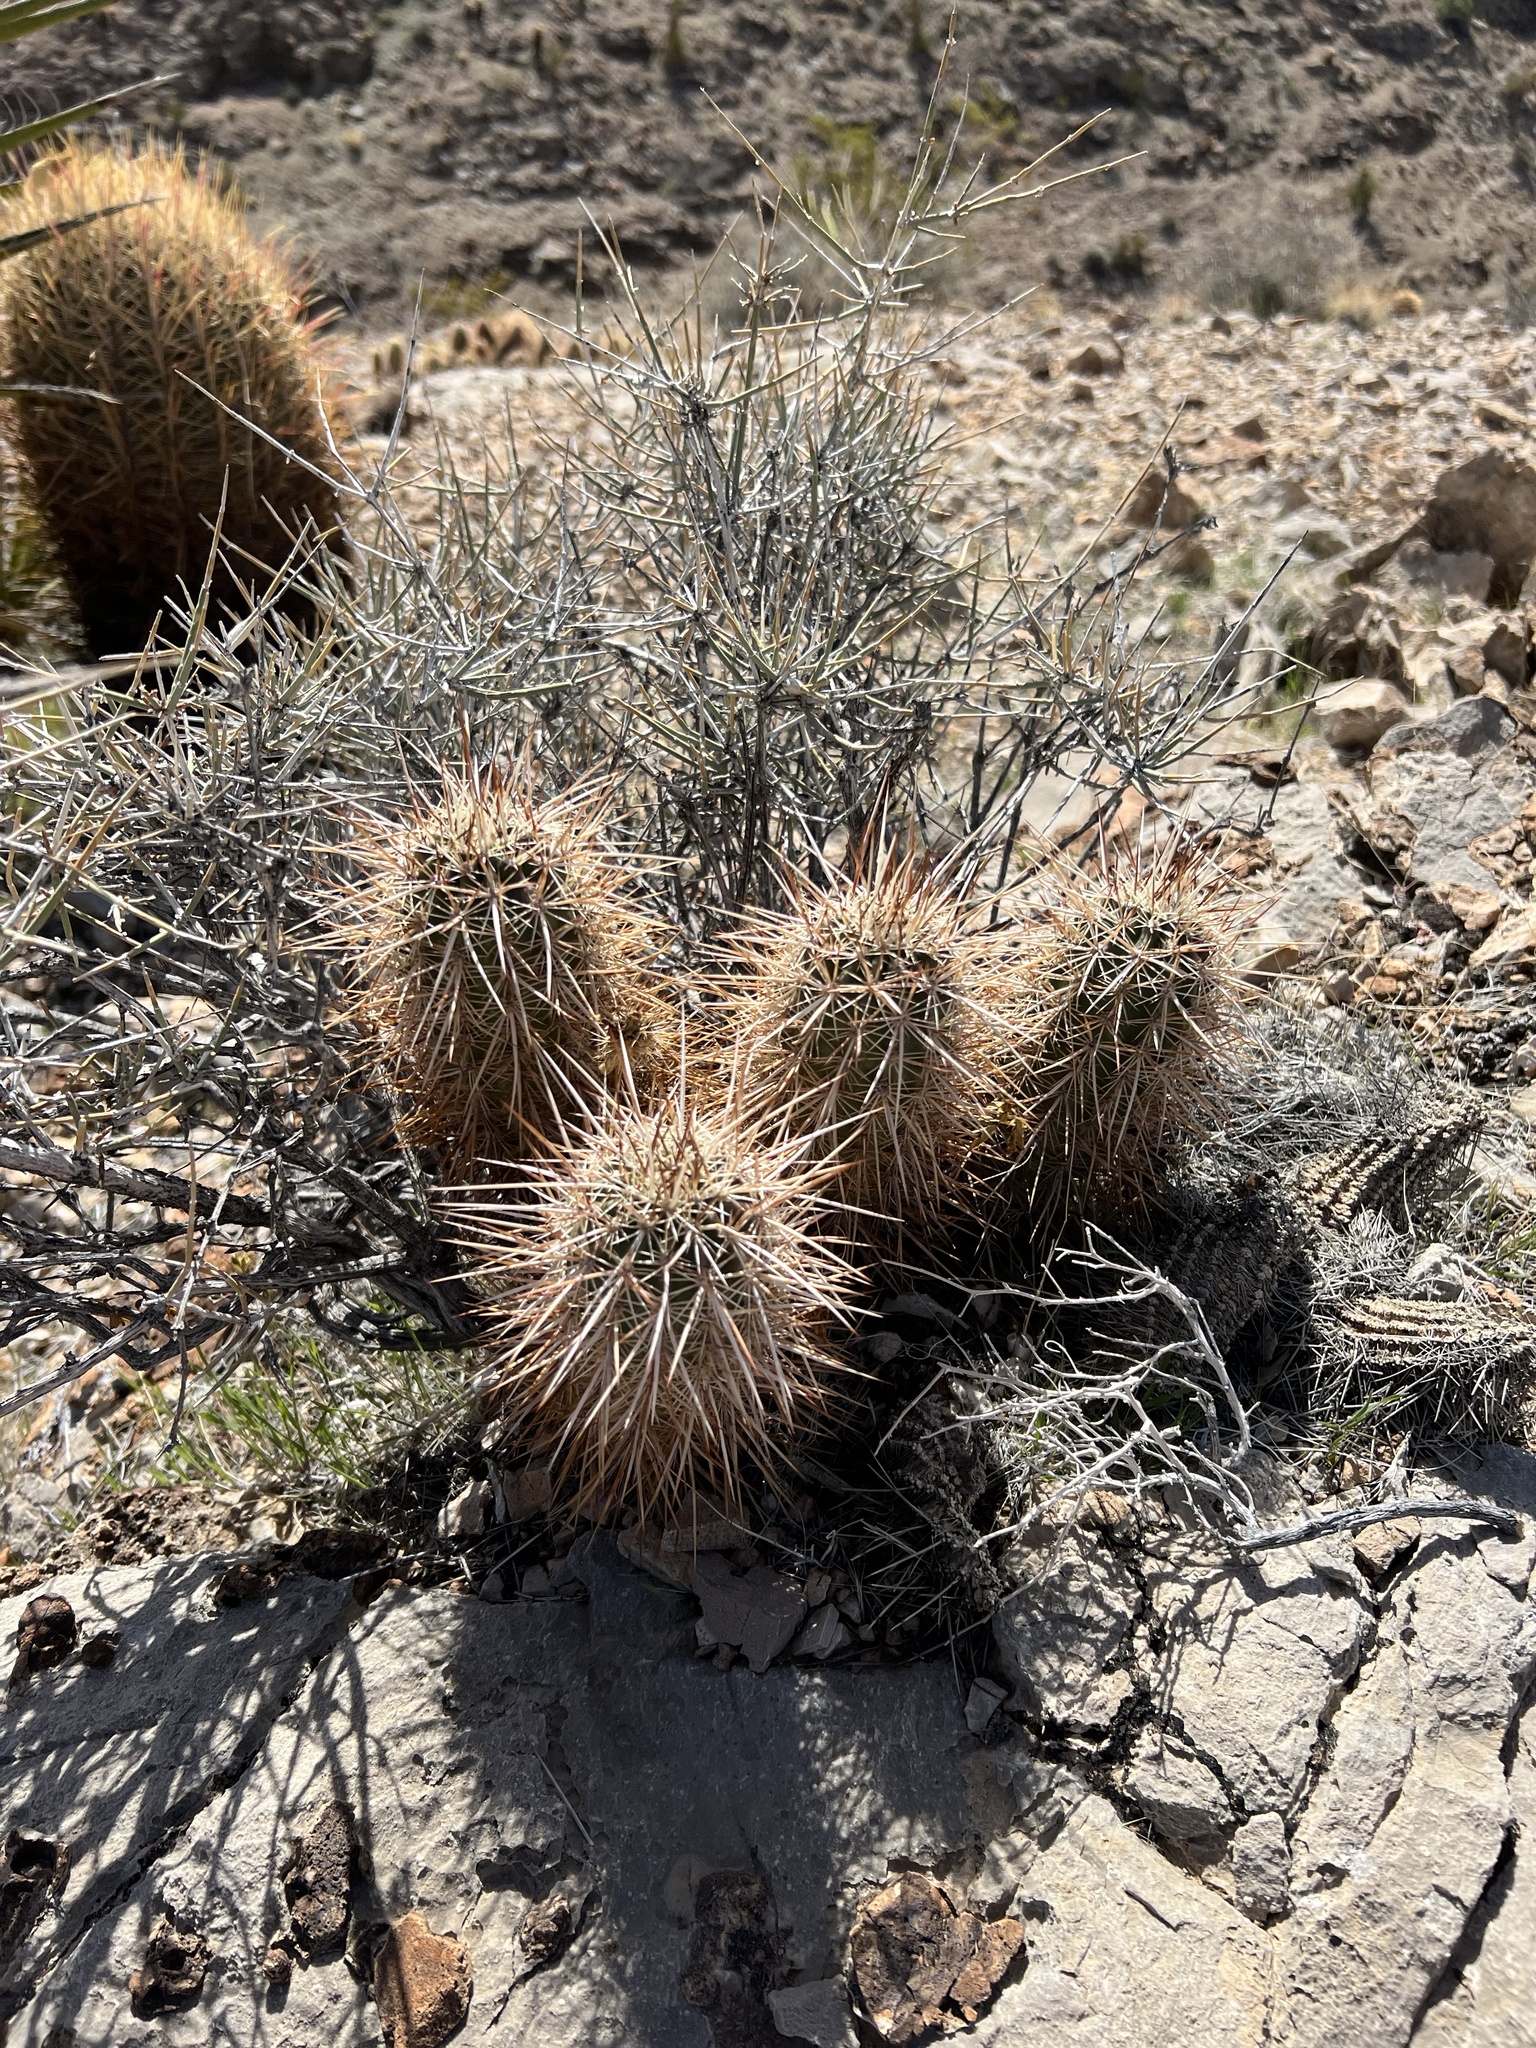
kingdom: Plantae
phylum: Tracheophyta
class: Magnoliopsida
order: Caryophyllales
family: Cactaceae
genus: Echinocereus
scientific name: Echinocereus engelmannii
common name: Engelmann's hedgehog cactus
